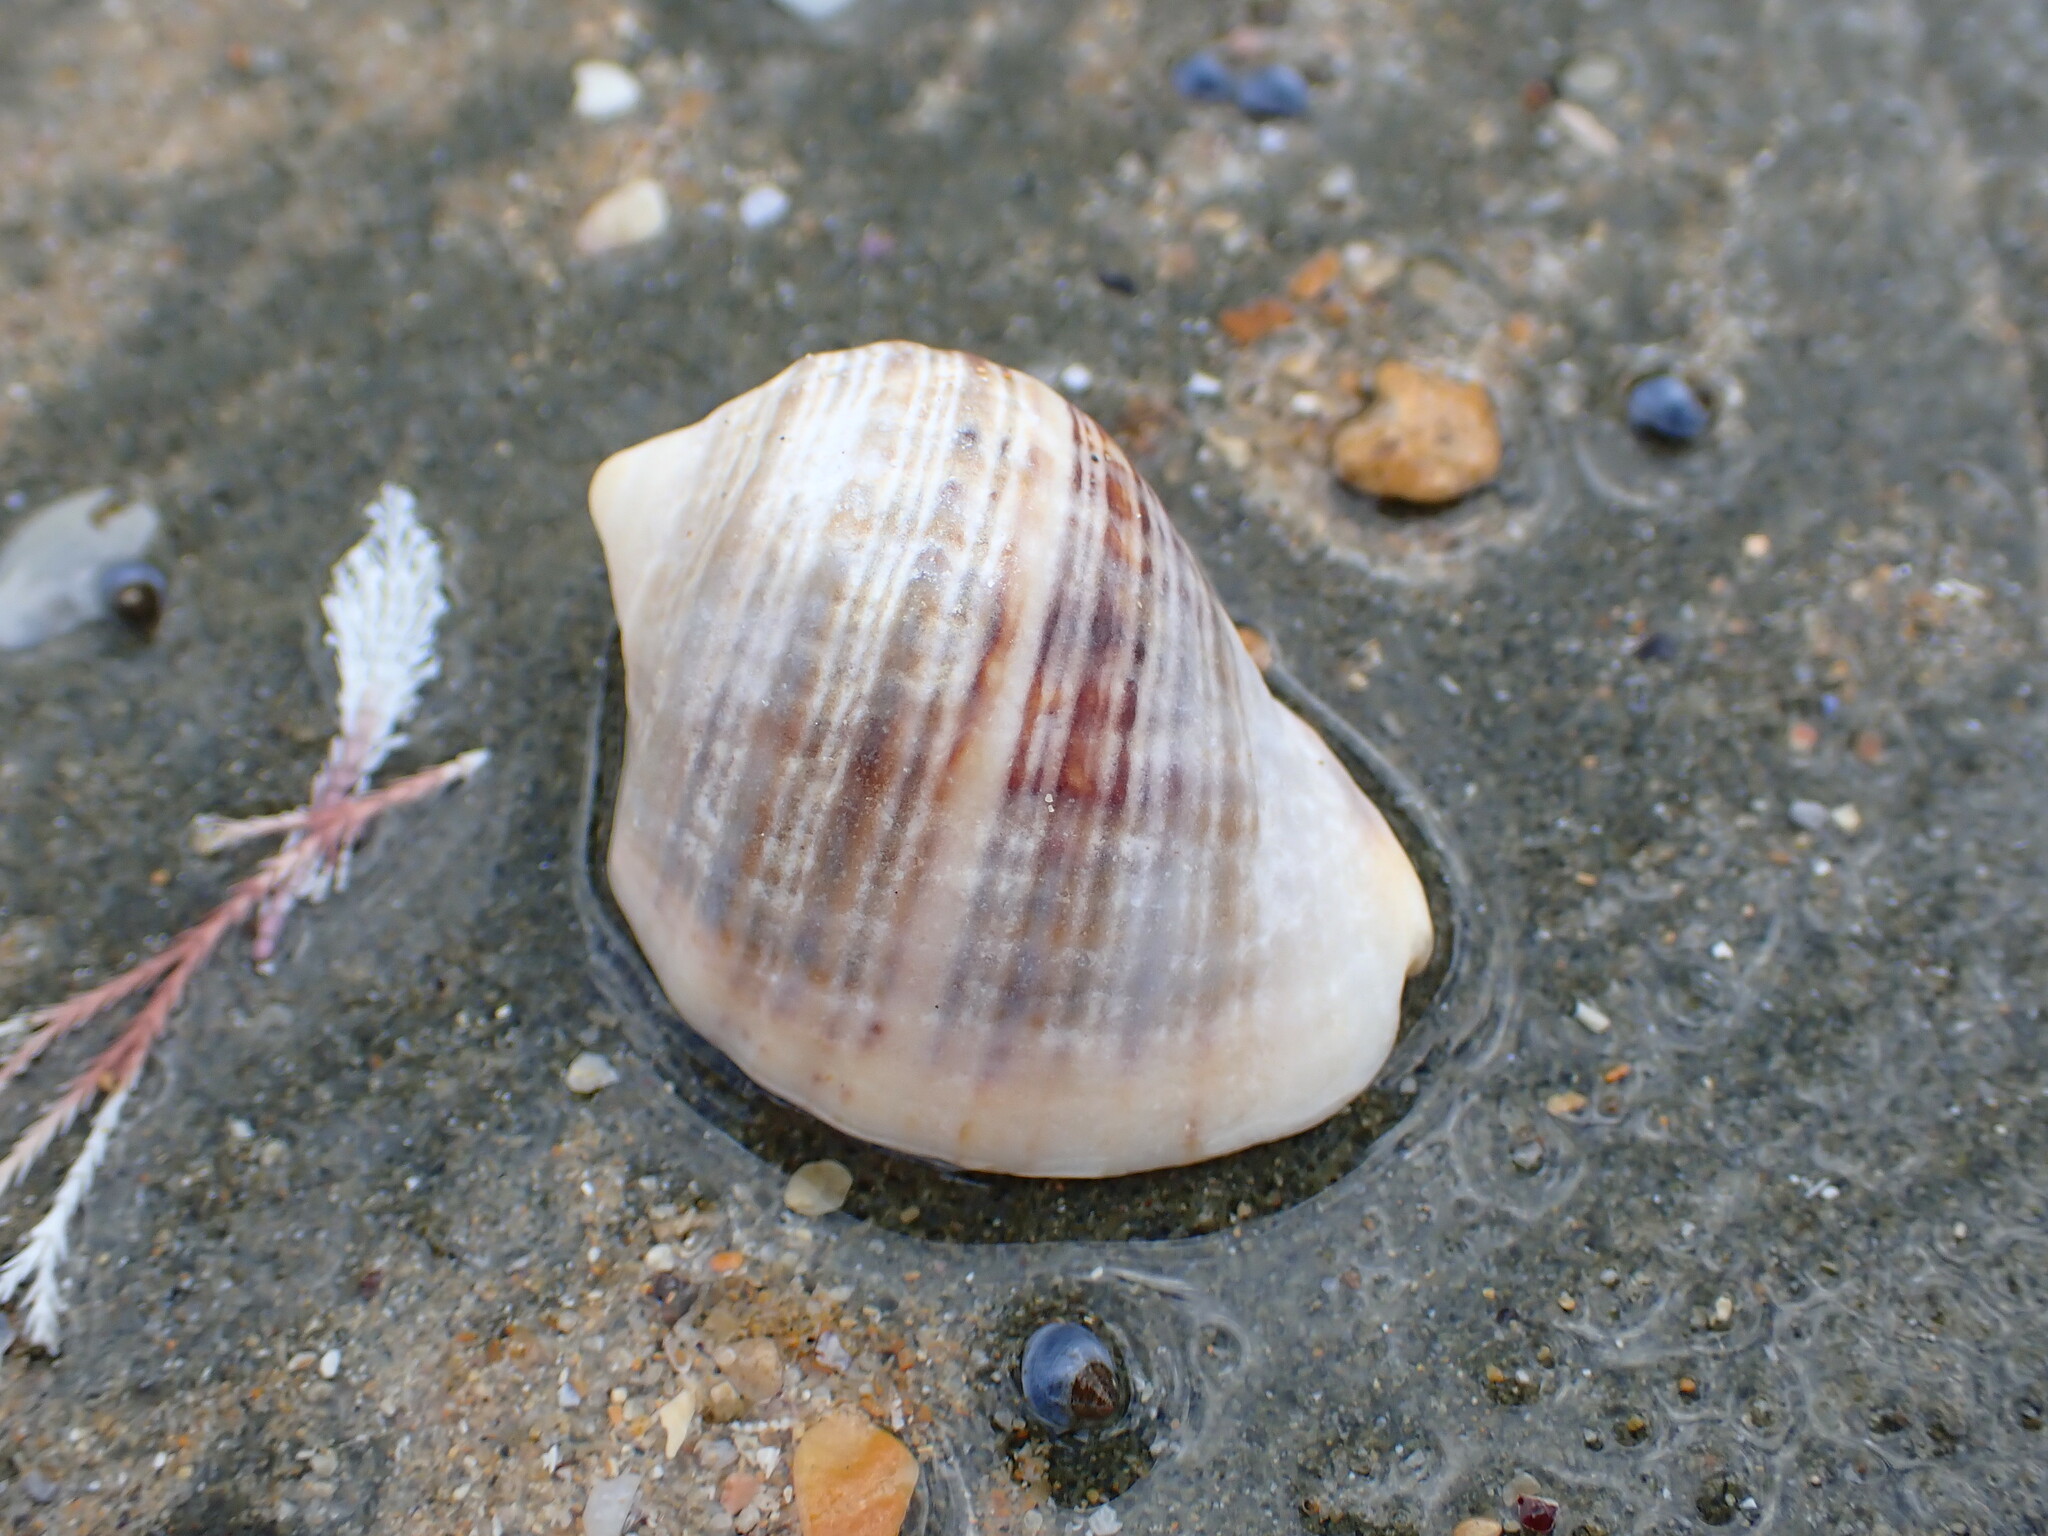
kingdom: Animalia
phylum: Mollusca
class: Gastropoda
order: Neogastropoda
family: Muricidae
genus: Dicathais
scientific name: Dicathais orbita
